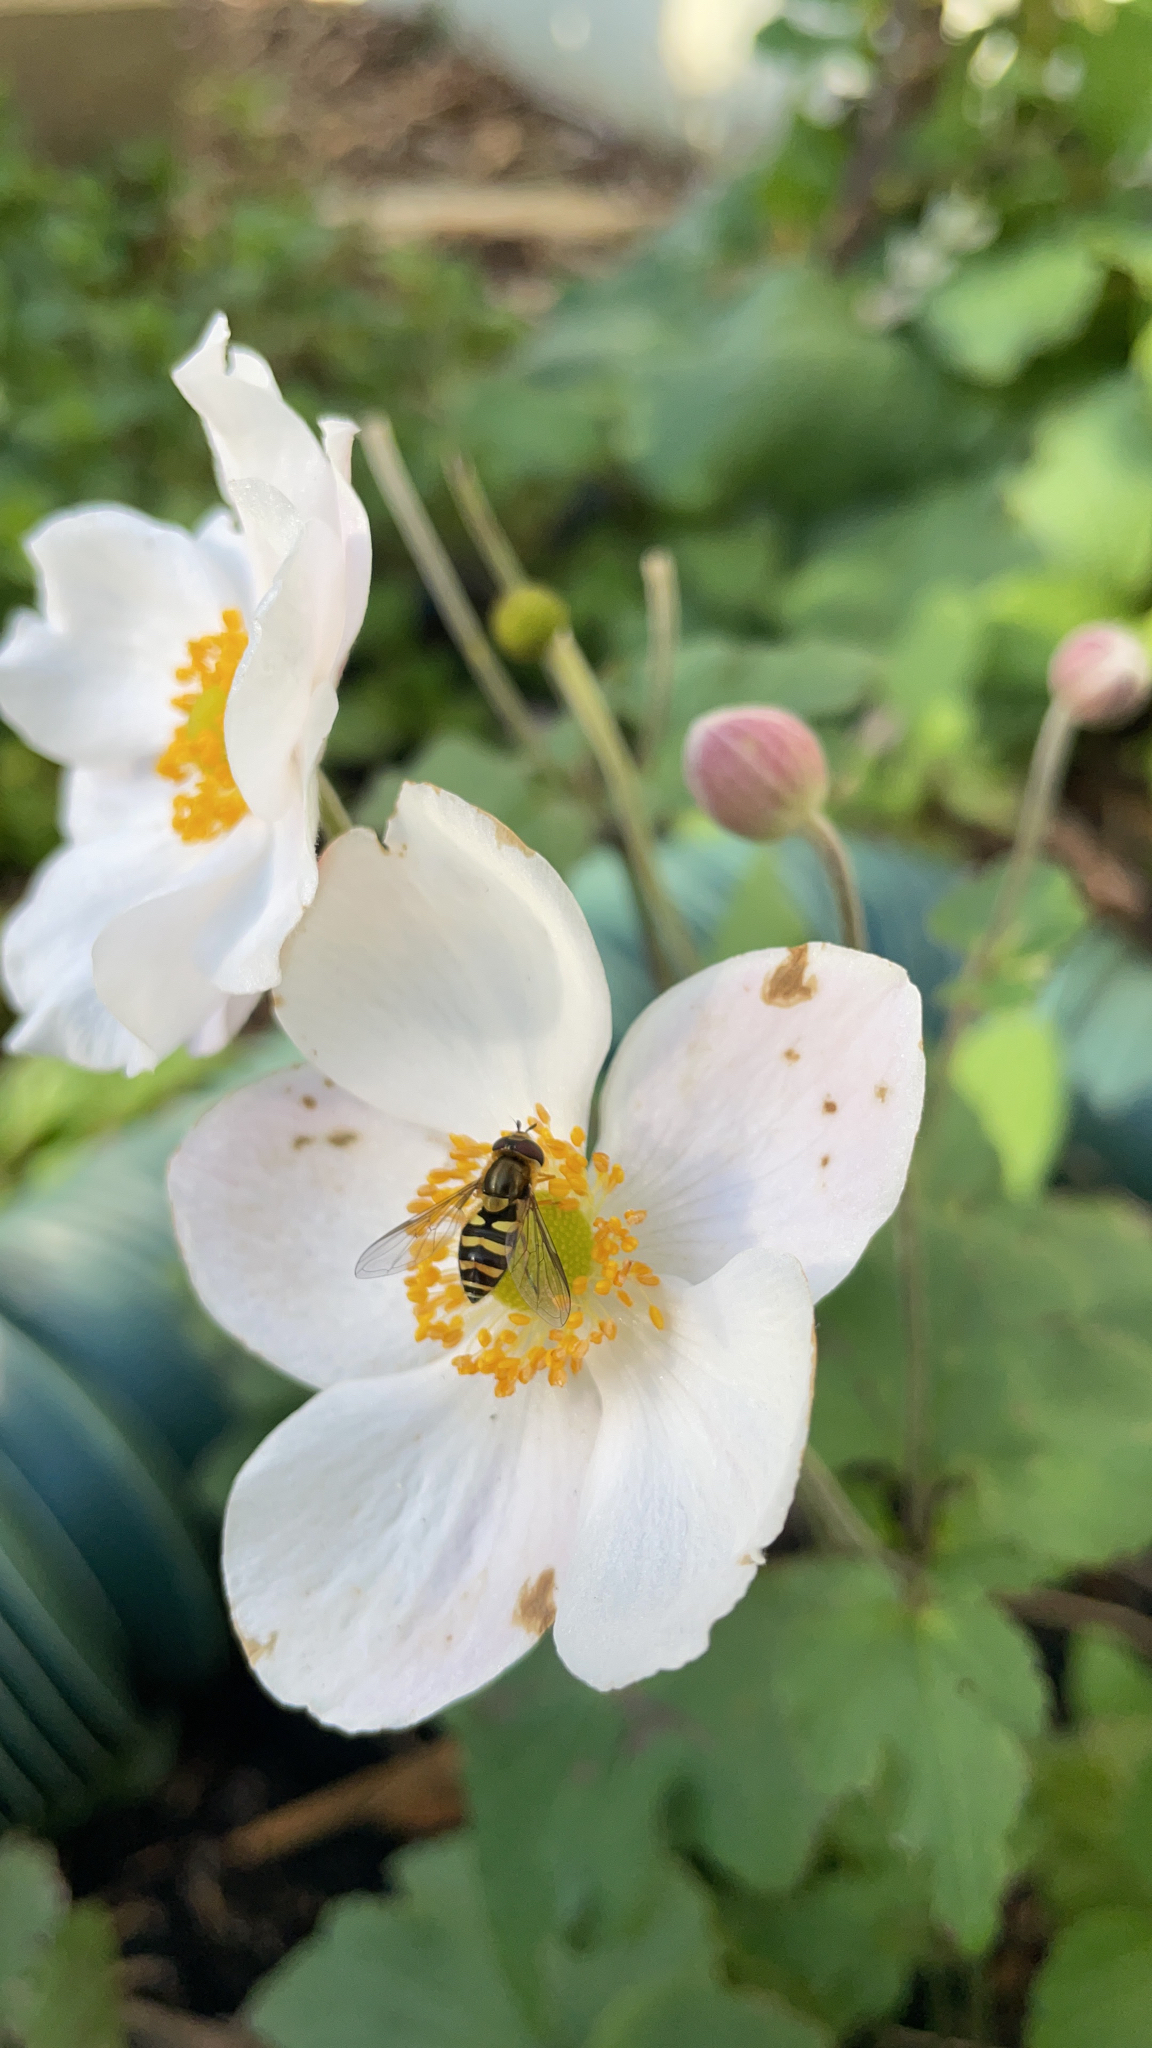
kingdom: Animalia
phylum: Arthropoda
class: Insecta
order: Diptera
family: Syrphidae
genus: Syrphus
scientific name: Syrphus opinator
